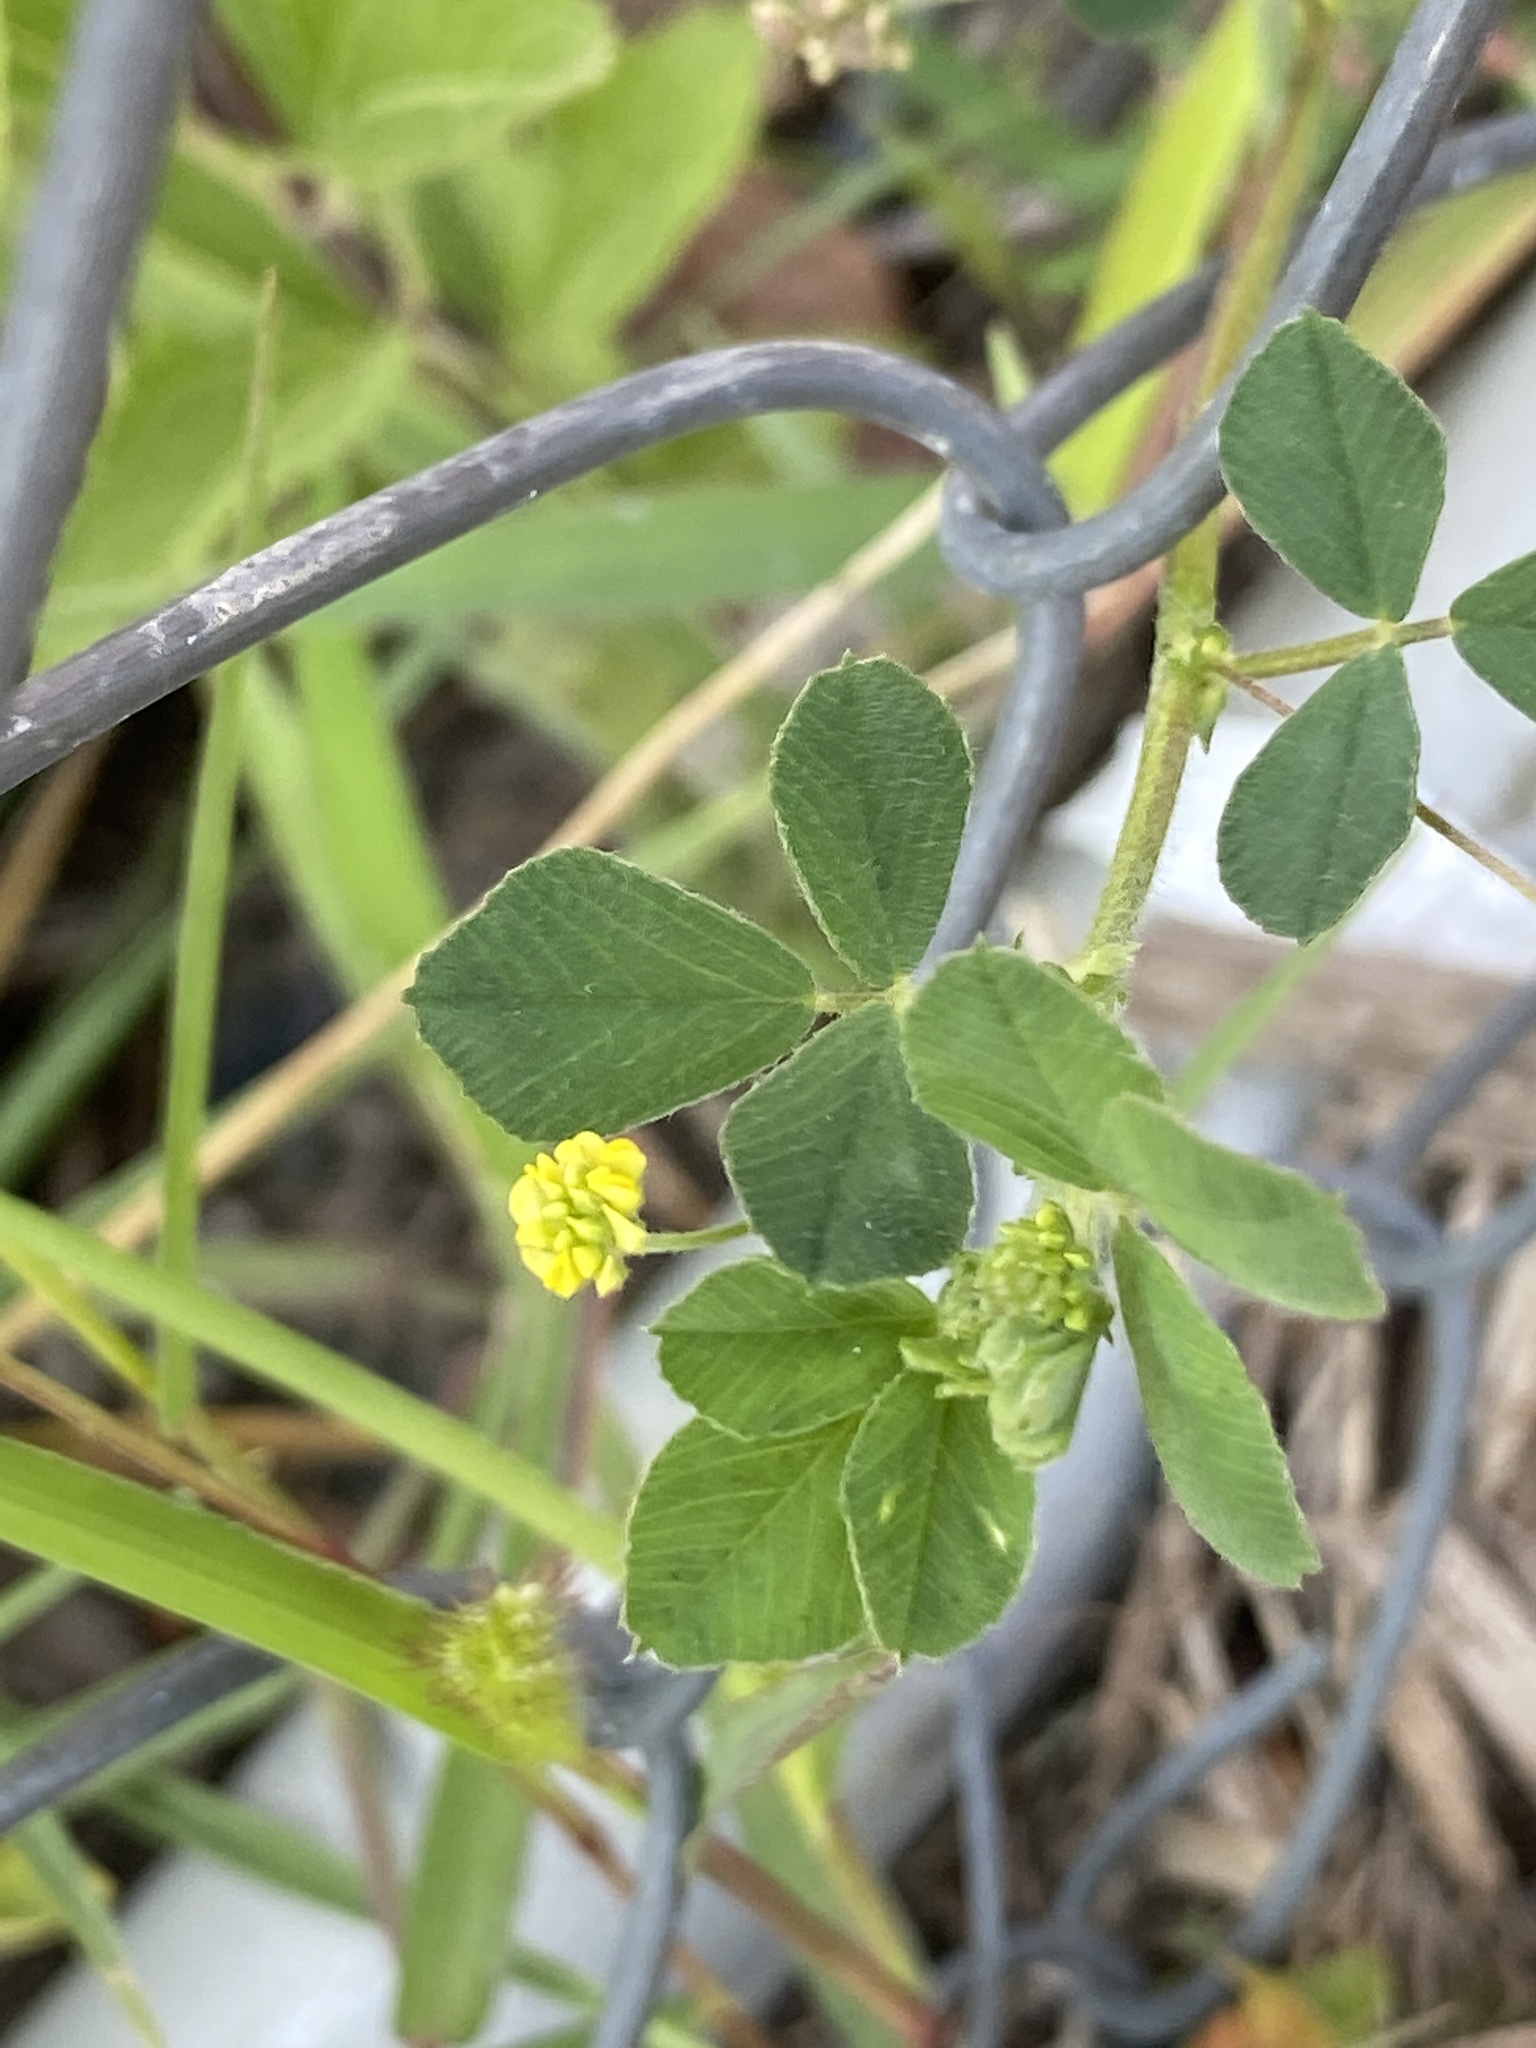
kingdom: Plantae
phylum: Tracheophyta
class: Magnoliopsida
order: Fabales
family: Fabaceae
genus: Medicago
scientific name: Medicago lupulina
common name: Black medick
